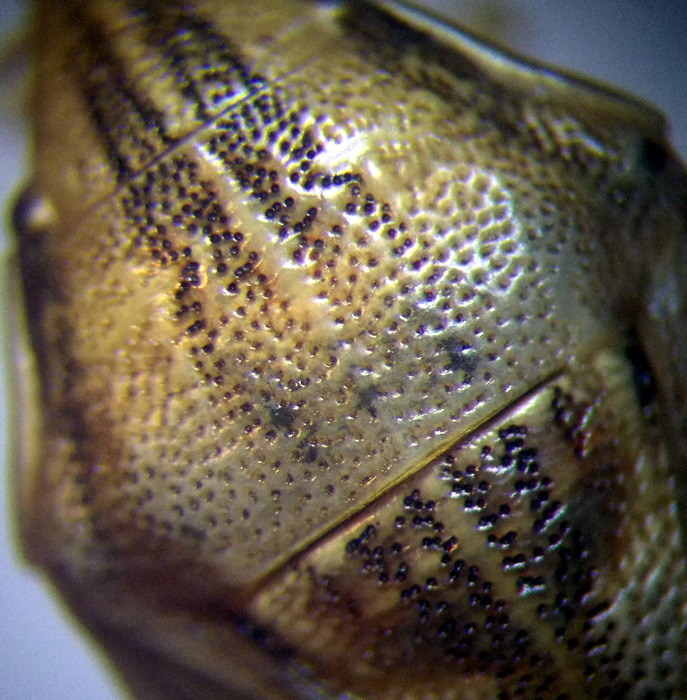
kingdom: Animalia
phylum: Arthropoda
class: Insecta
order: Hemiptera
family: Pentatomidae
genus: Aelia
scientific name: Aelia acuminata
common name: Bishop's mitre
